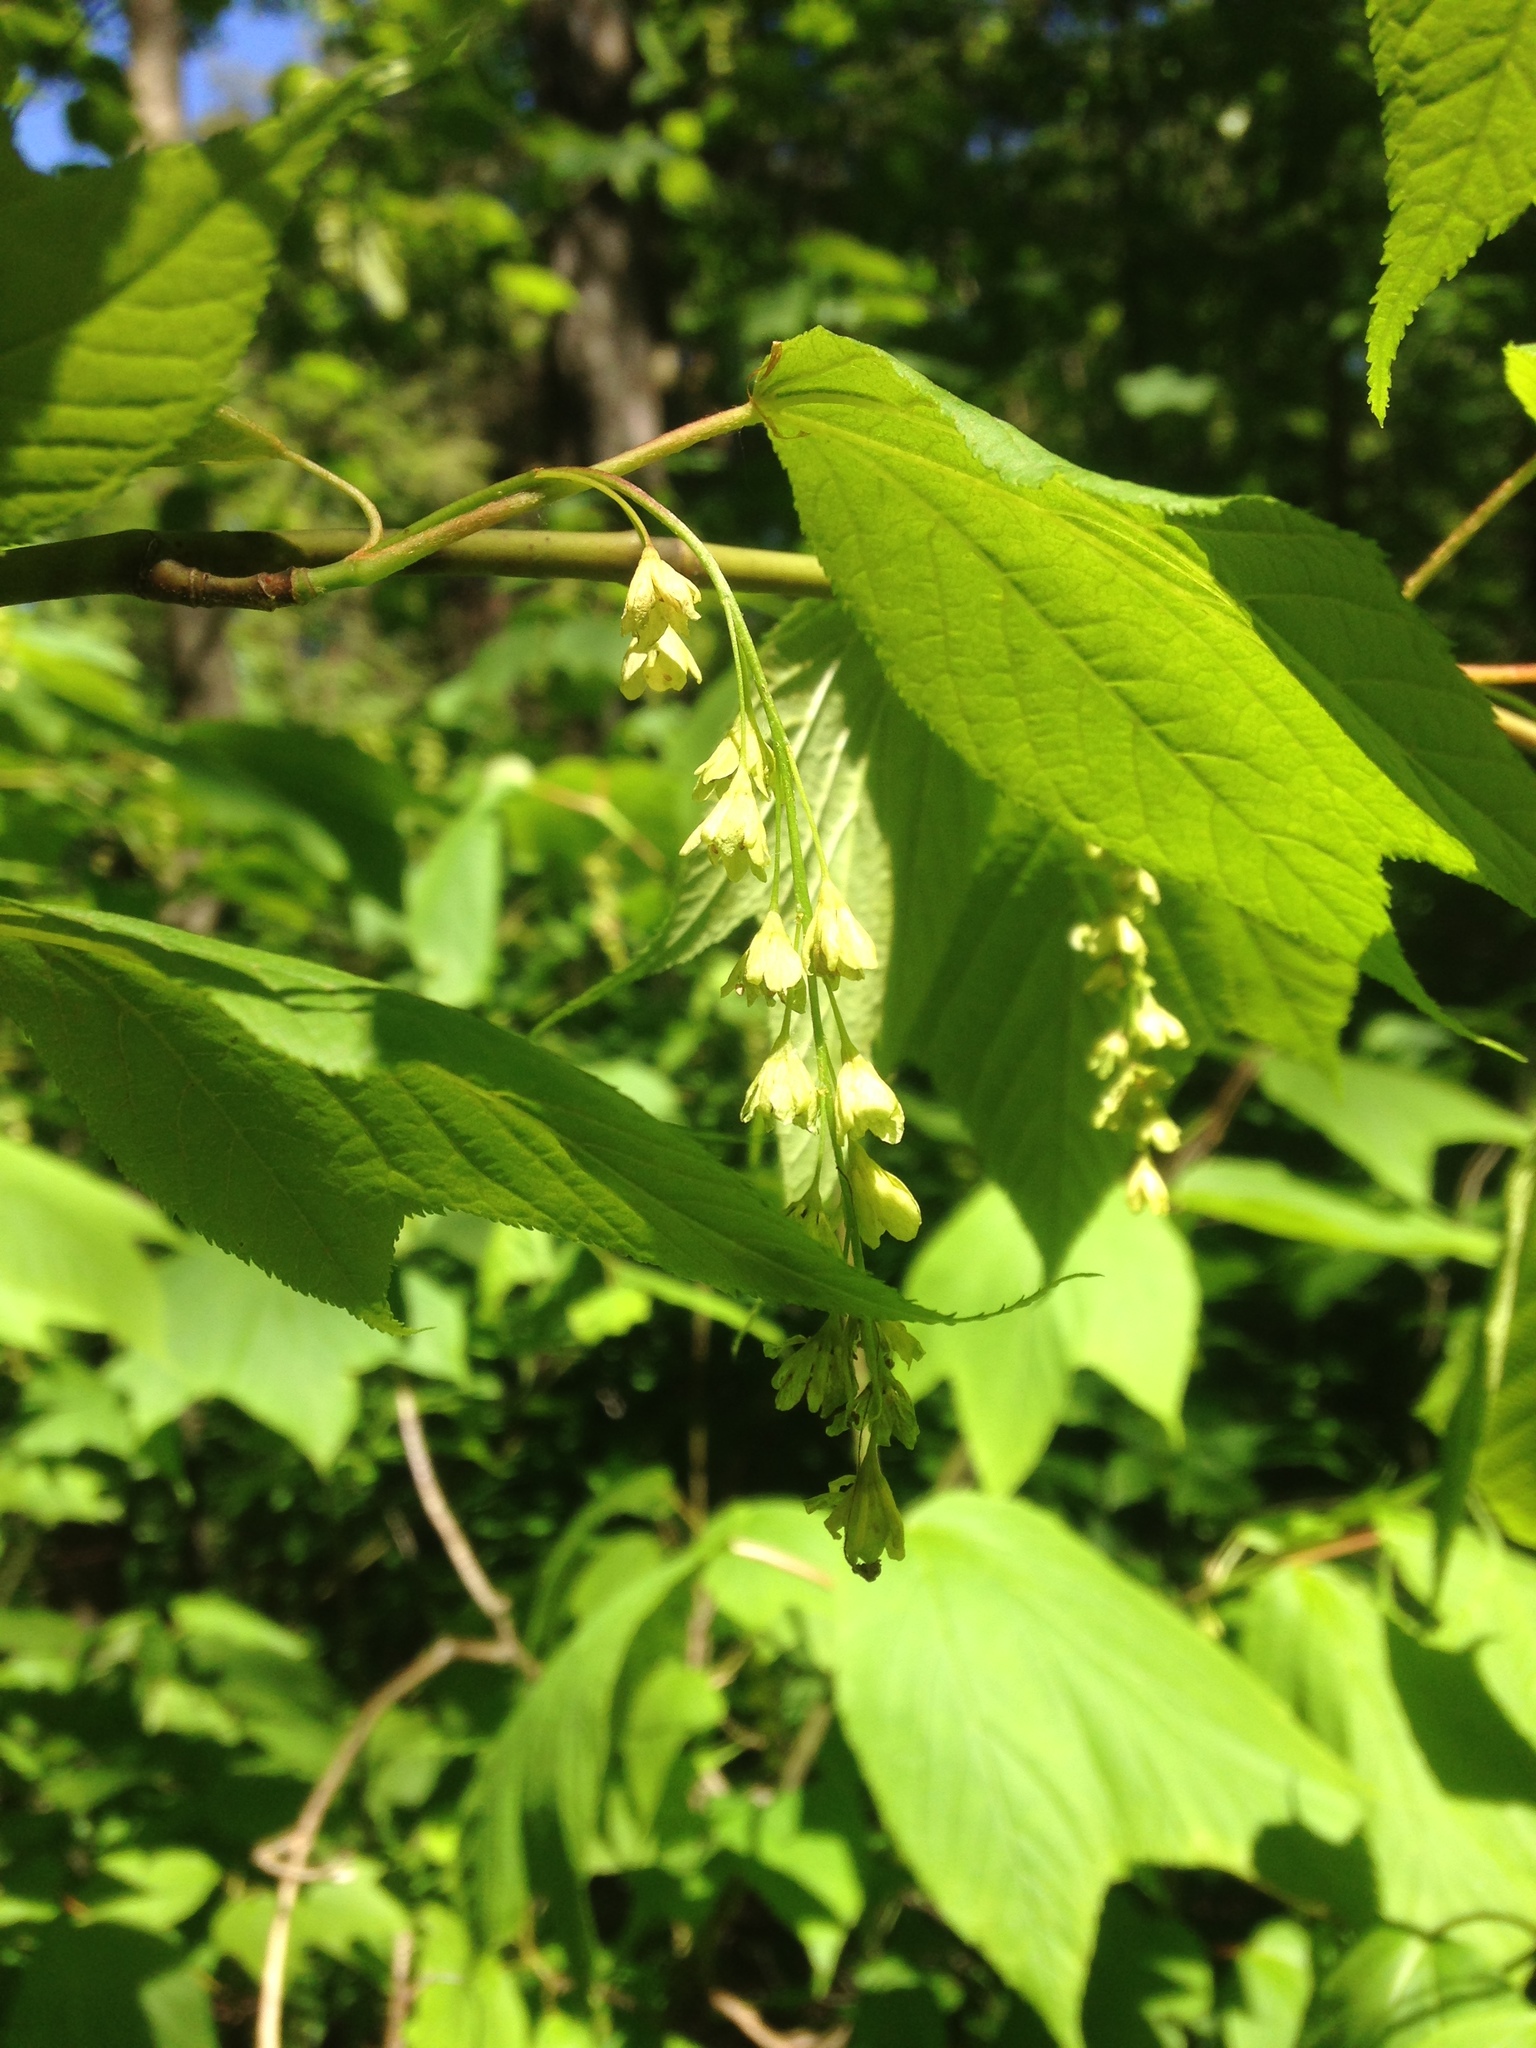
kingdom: Plantae
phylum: Tracheophyta
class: Magnoliopsida
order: Sapindales
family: Sapindaceae
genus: Acer
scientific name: Acer pensylvanicum
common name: Moosewood
